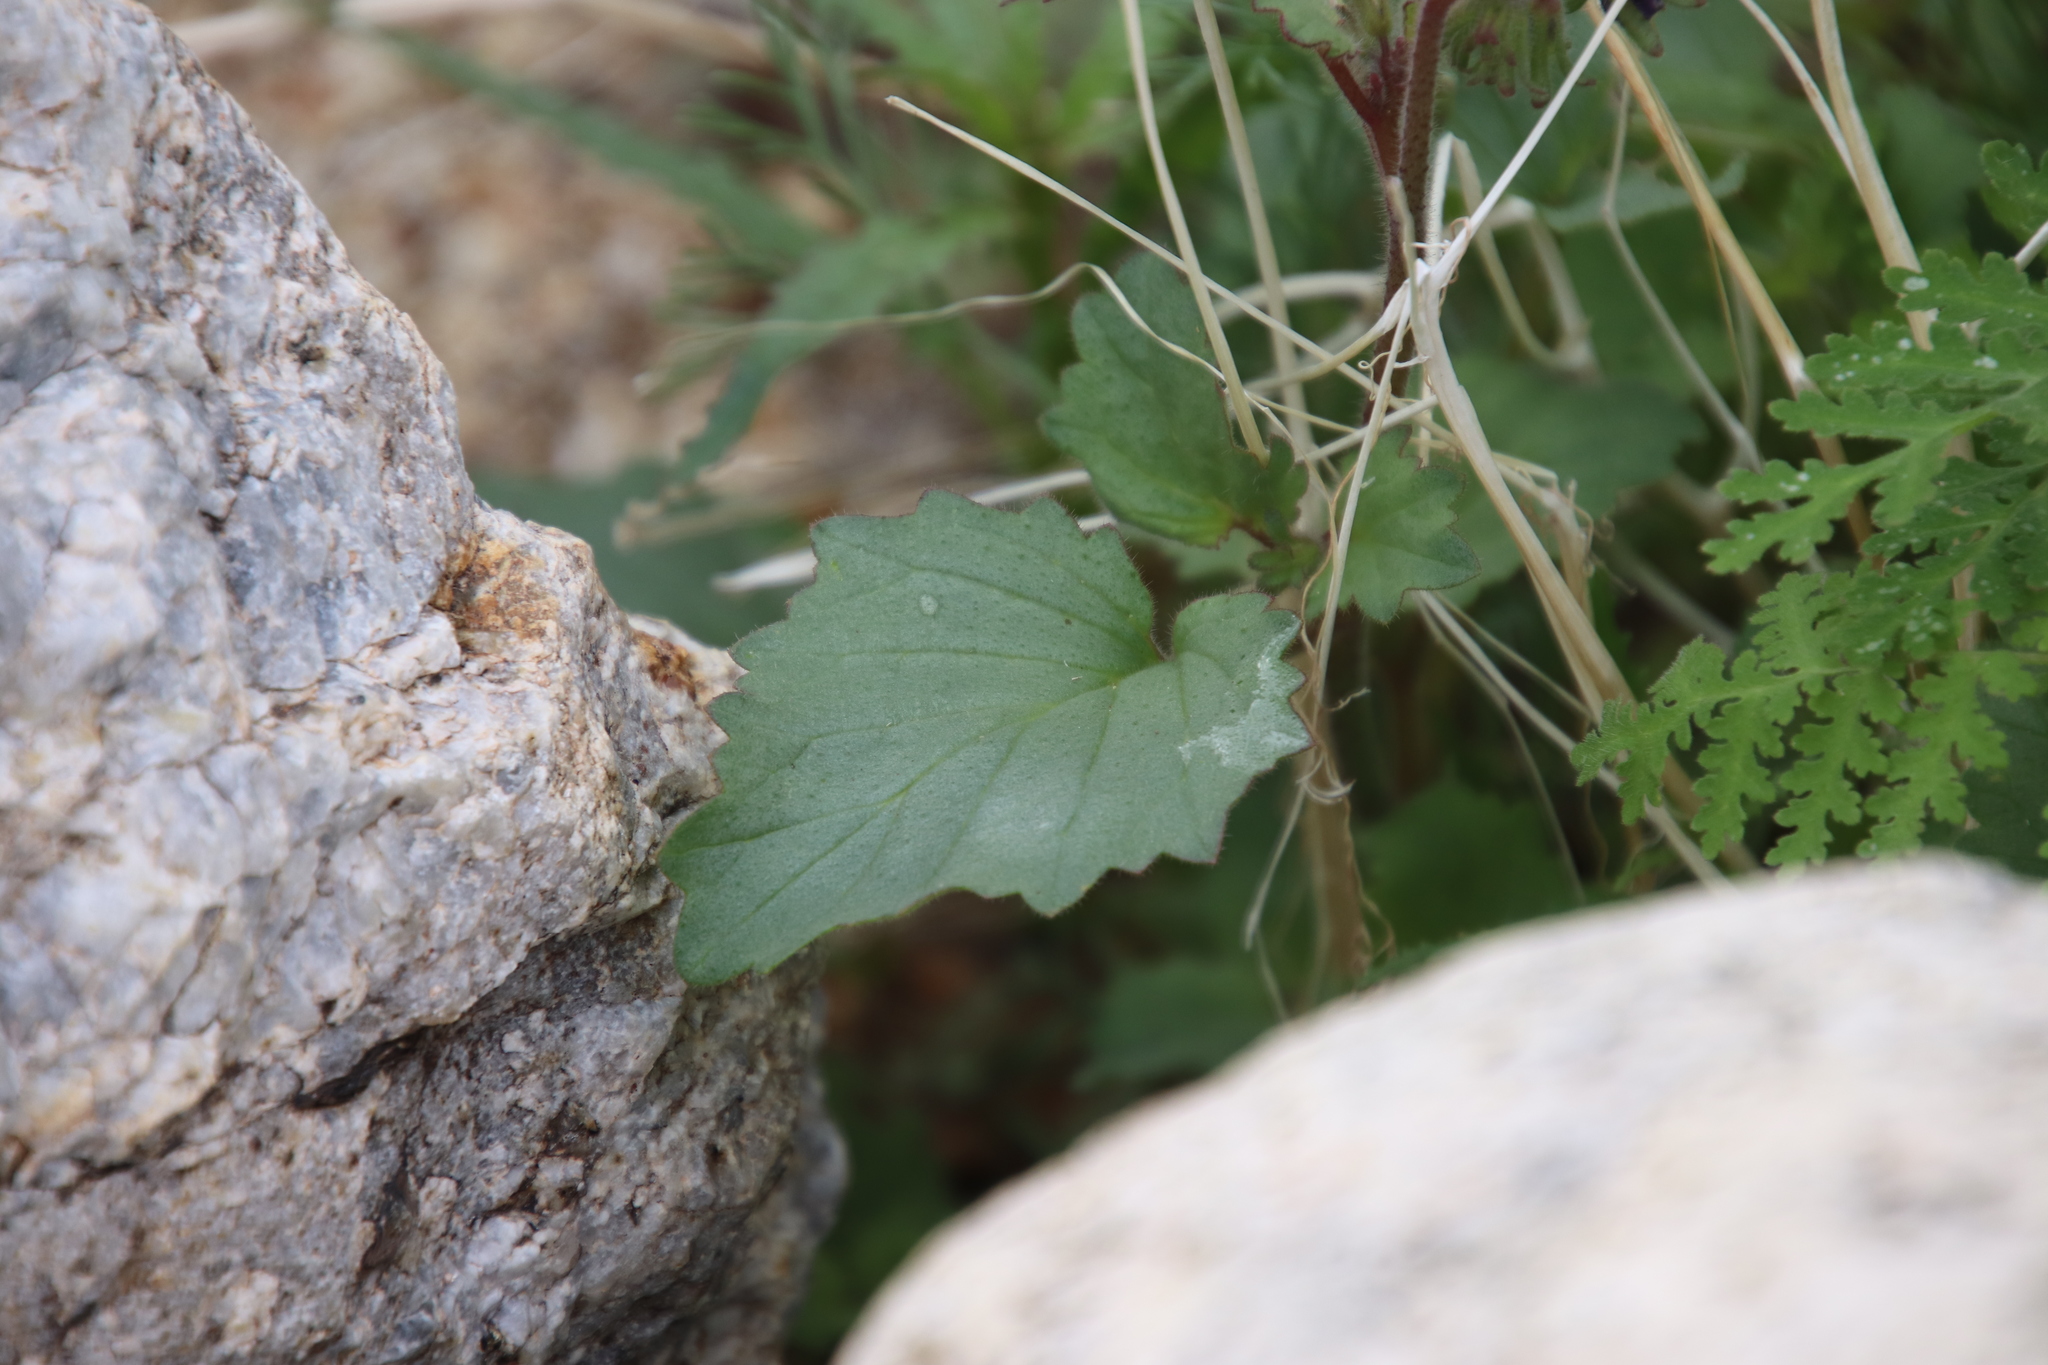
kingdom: Plantae
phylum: Tracheophyta
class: Magnoliopsida
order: Boraginales
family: Hydrophyllaceae
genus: Phacelia
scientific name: Phacelia minor
